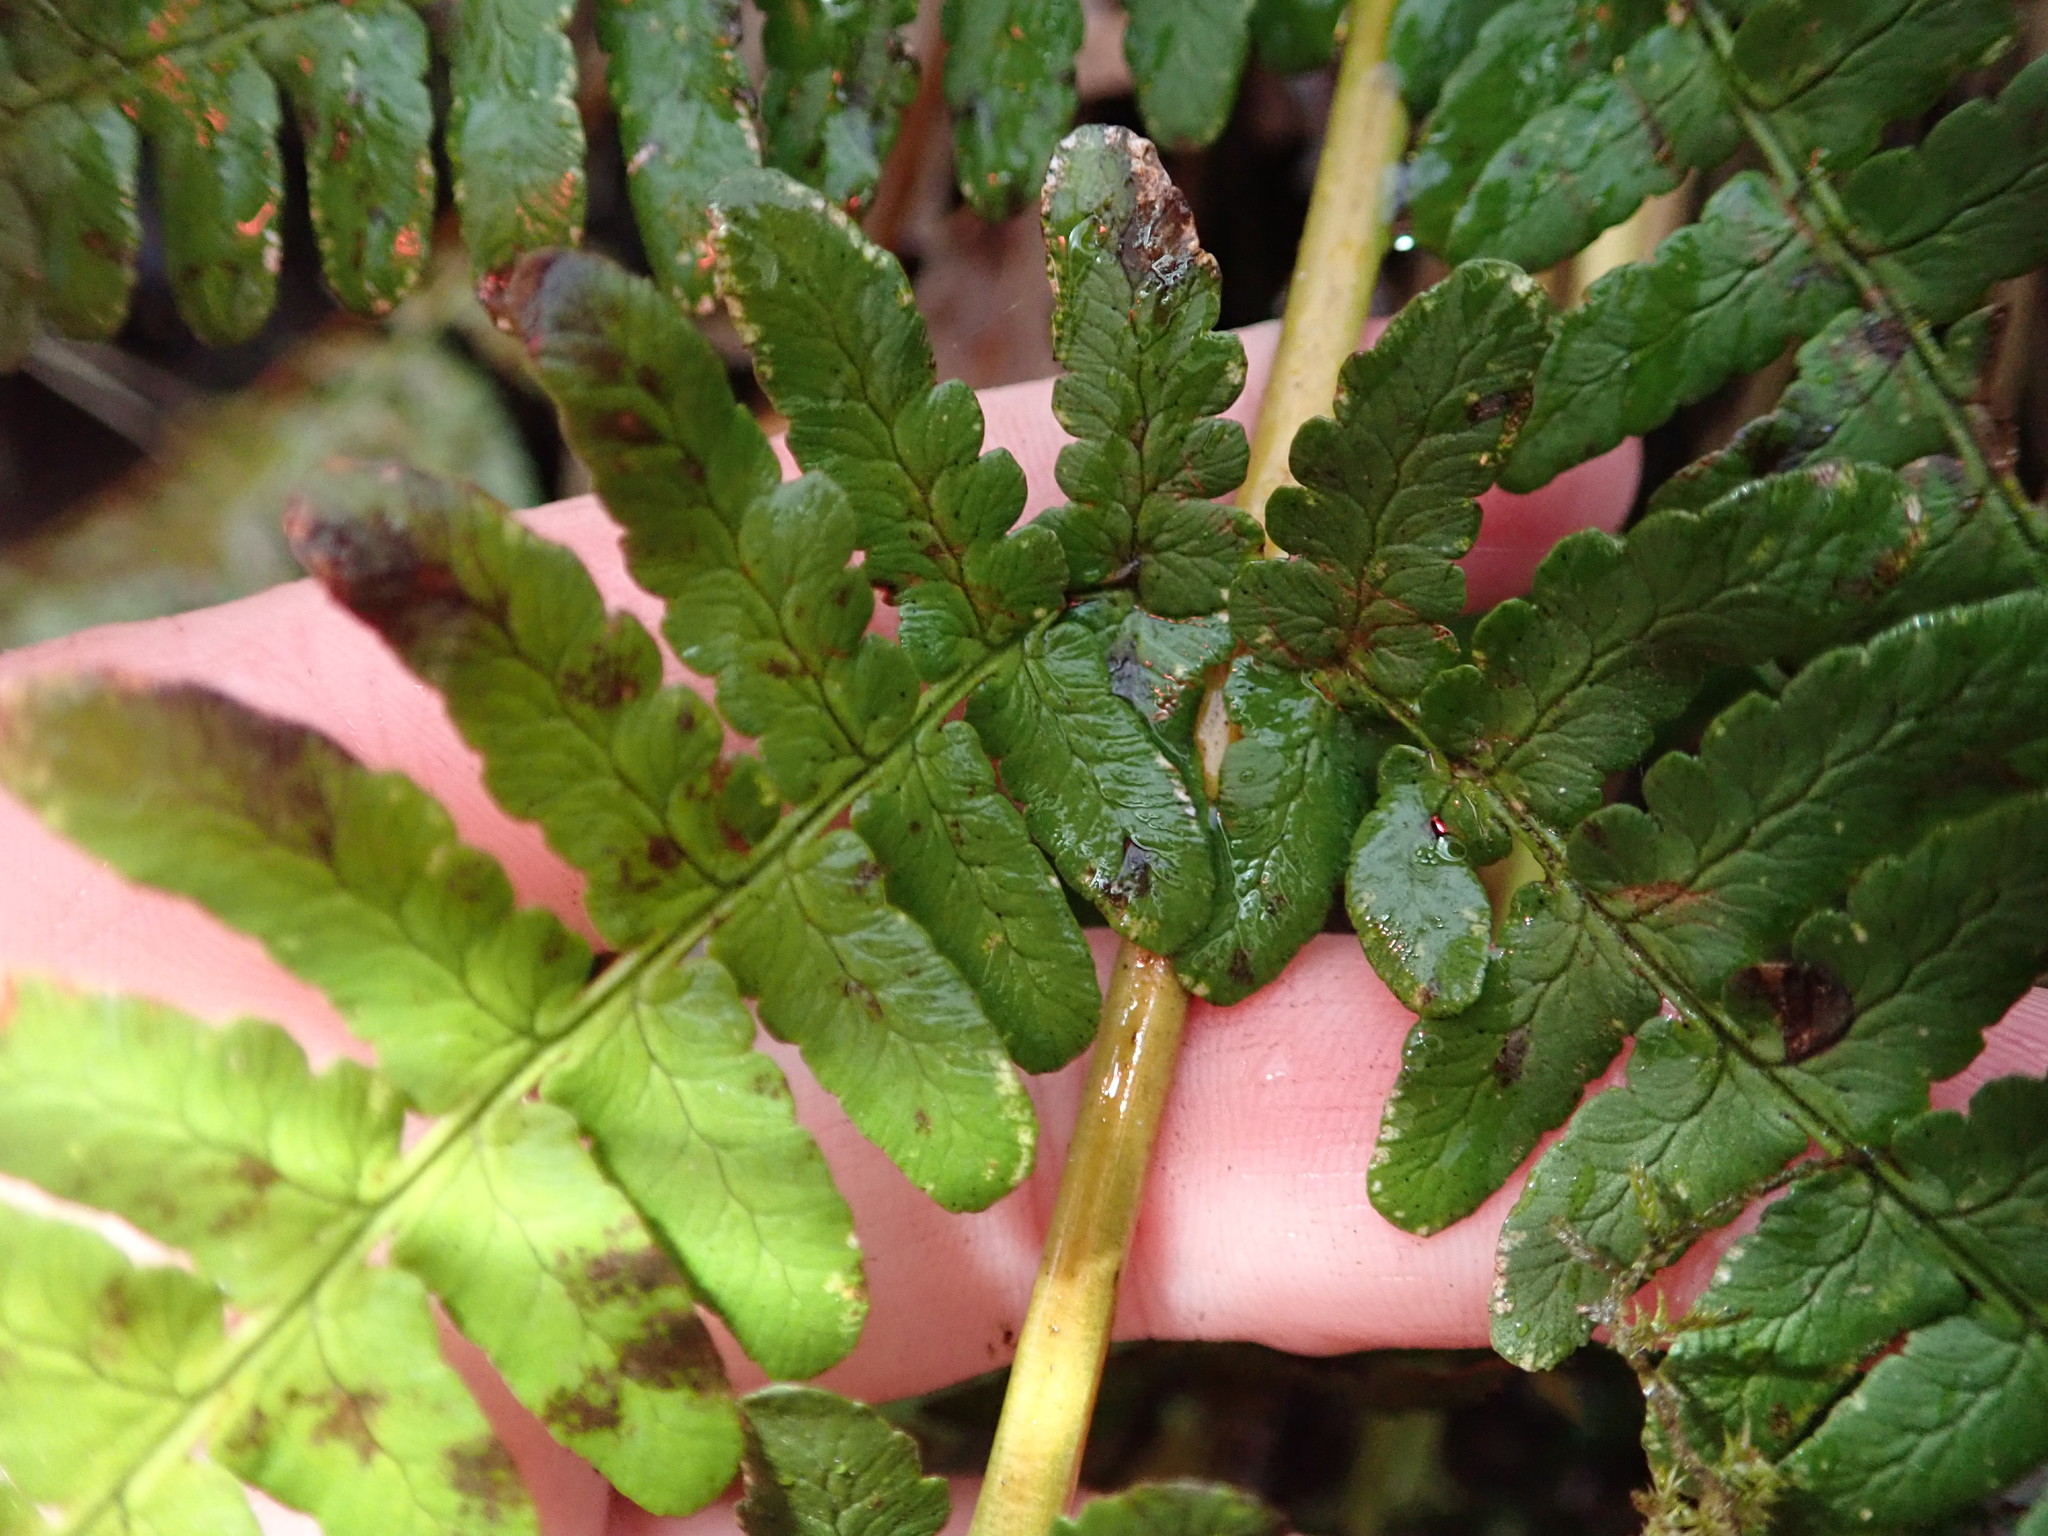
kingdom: Plantae
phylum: Tracheophyta
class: Polypodiopsida
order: Polypodiales
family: Dryopteridaceae
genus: Dryopteris
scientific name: Dryopteris marginalis
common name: Marginal wood fern
